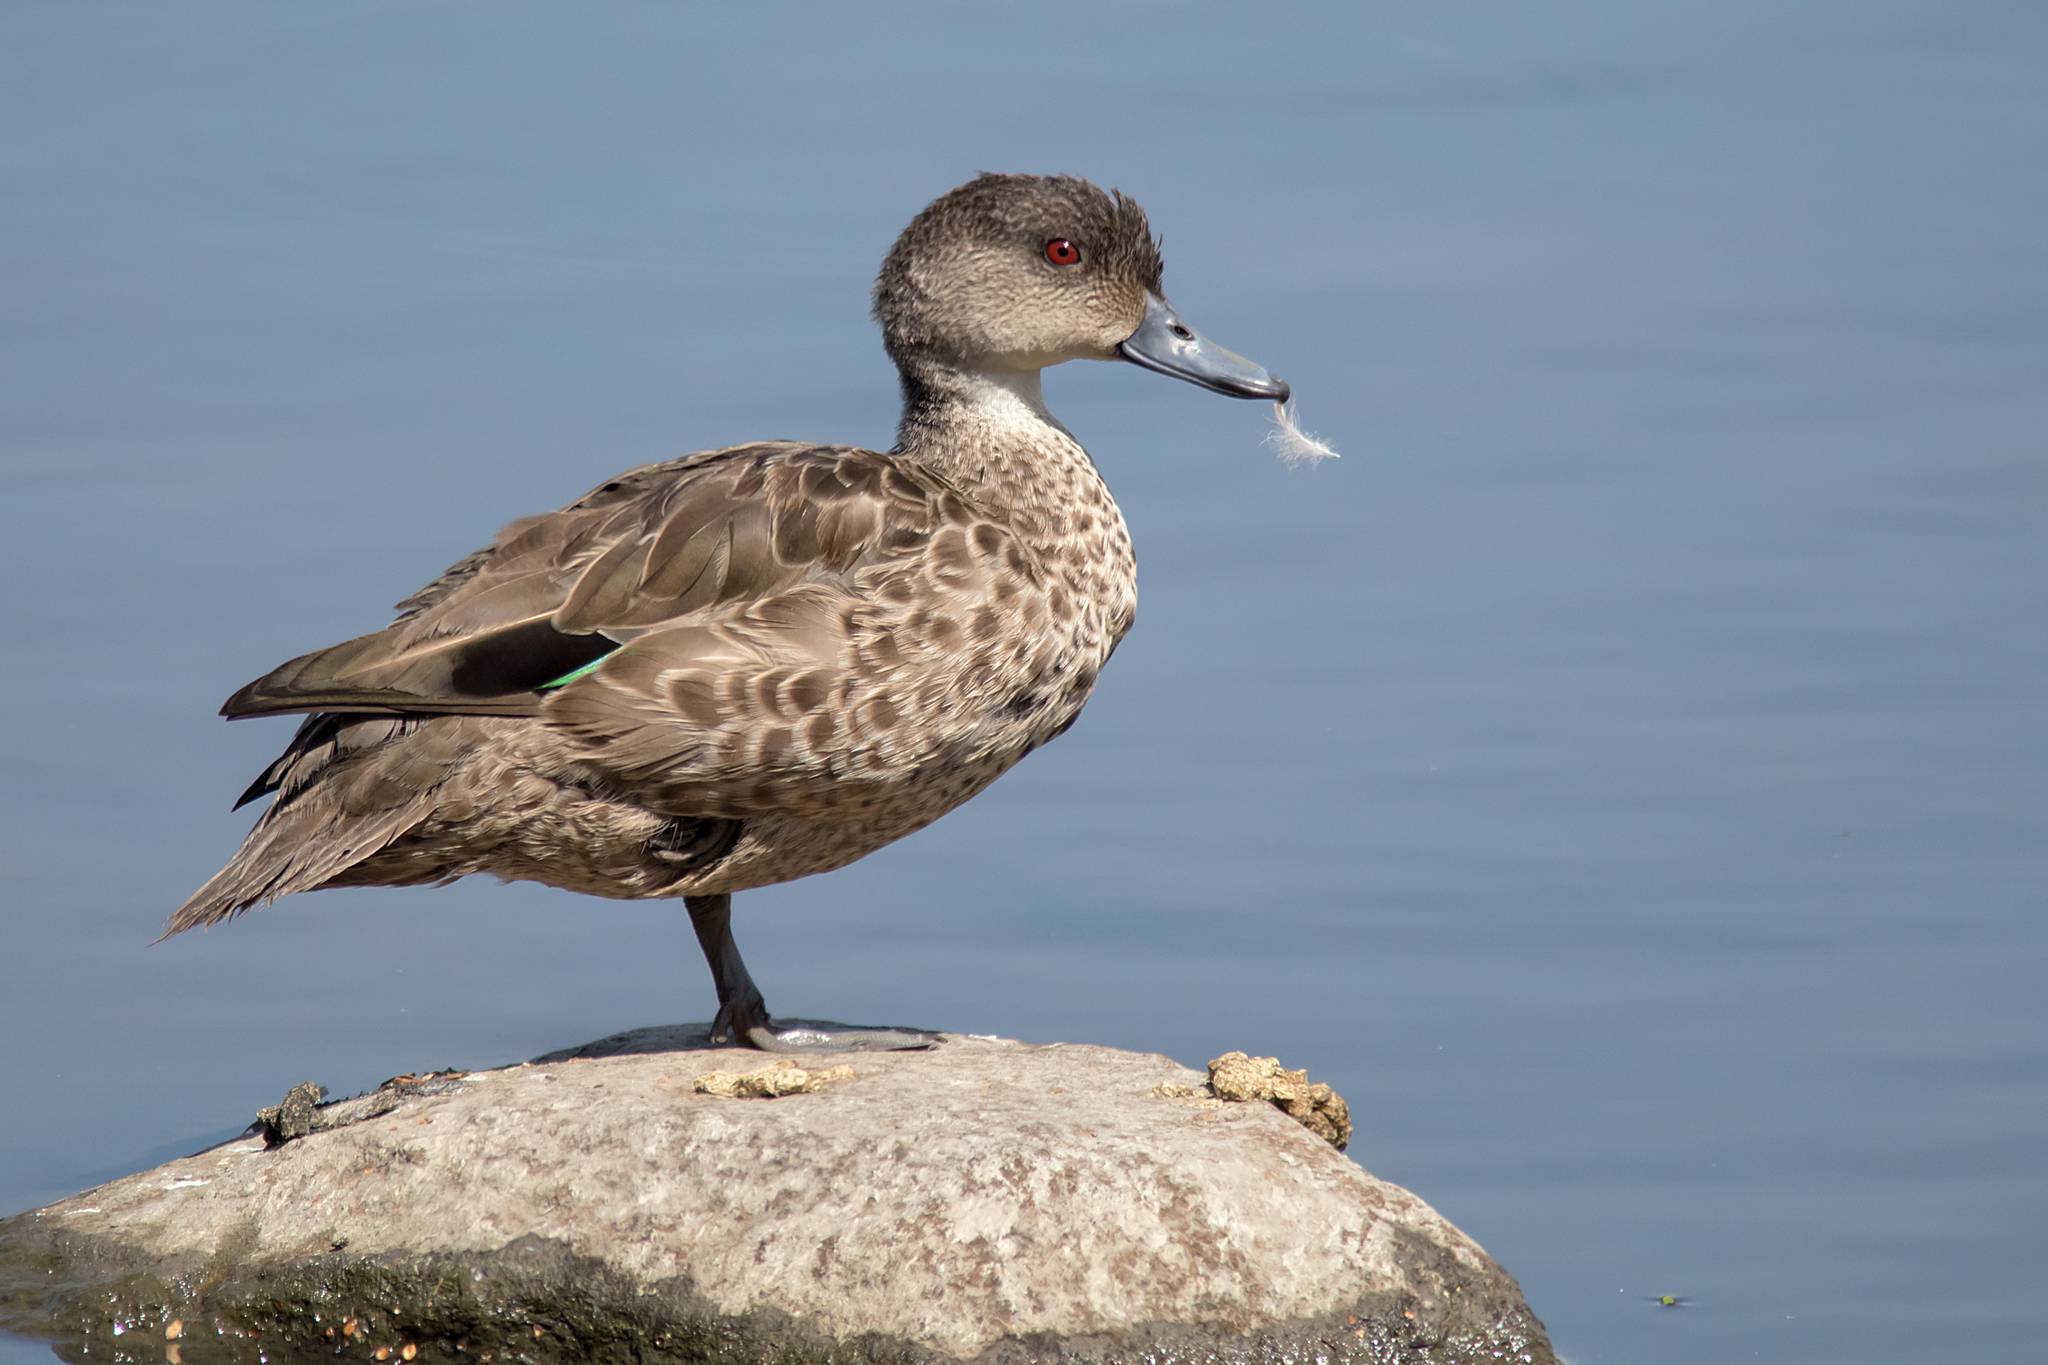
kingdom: Animalia
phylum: Chordata
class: Aves
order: Anseriformes
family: Anatidae
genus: Anas
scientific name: Anas gracilis
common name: Grey teal
